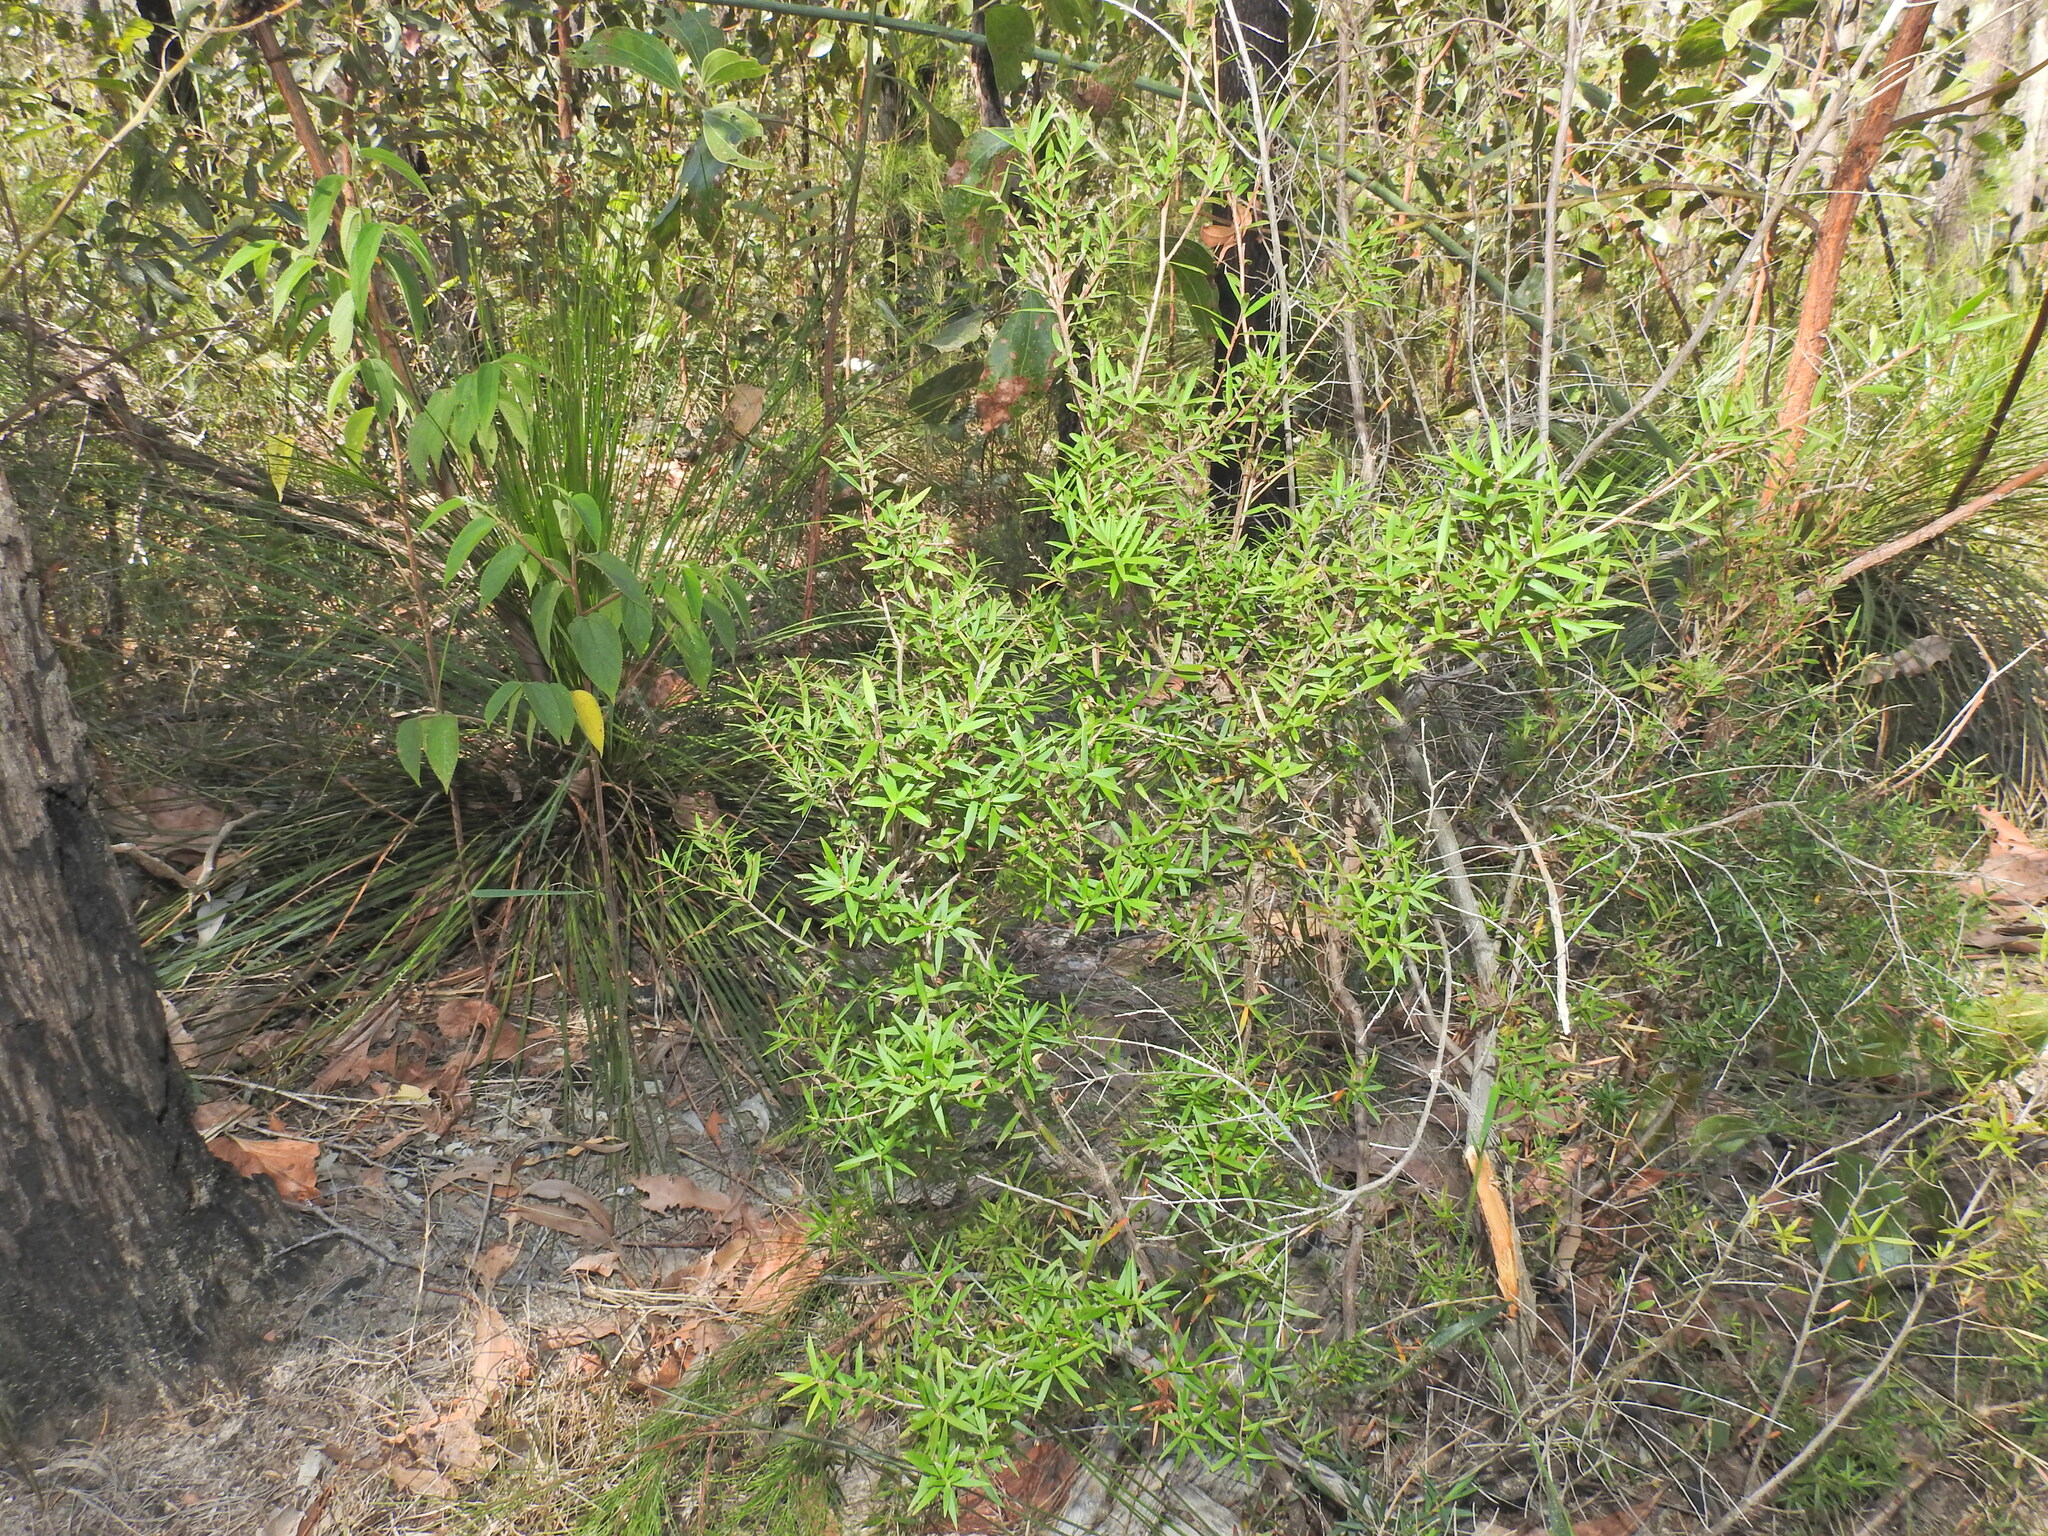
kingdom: Plantae
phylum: Tracheophyta
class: Magnoliopsida
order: Ericales
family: Ericaceae
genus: Leucopogon
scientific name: Leucopogon pimeleoides
